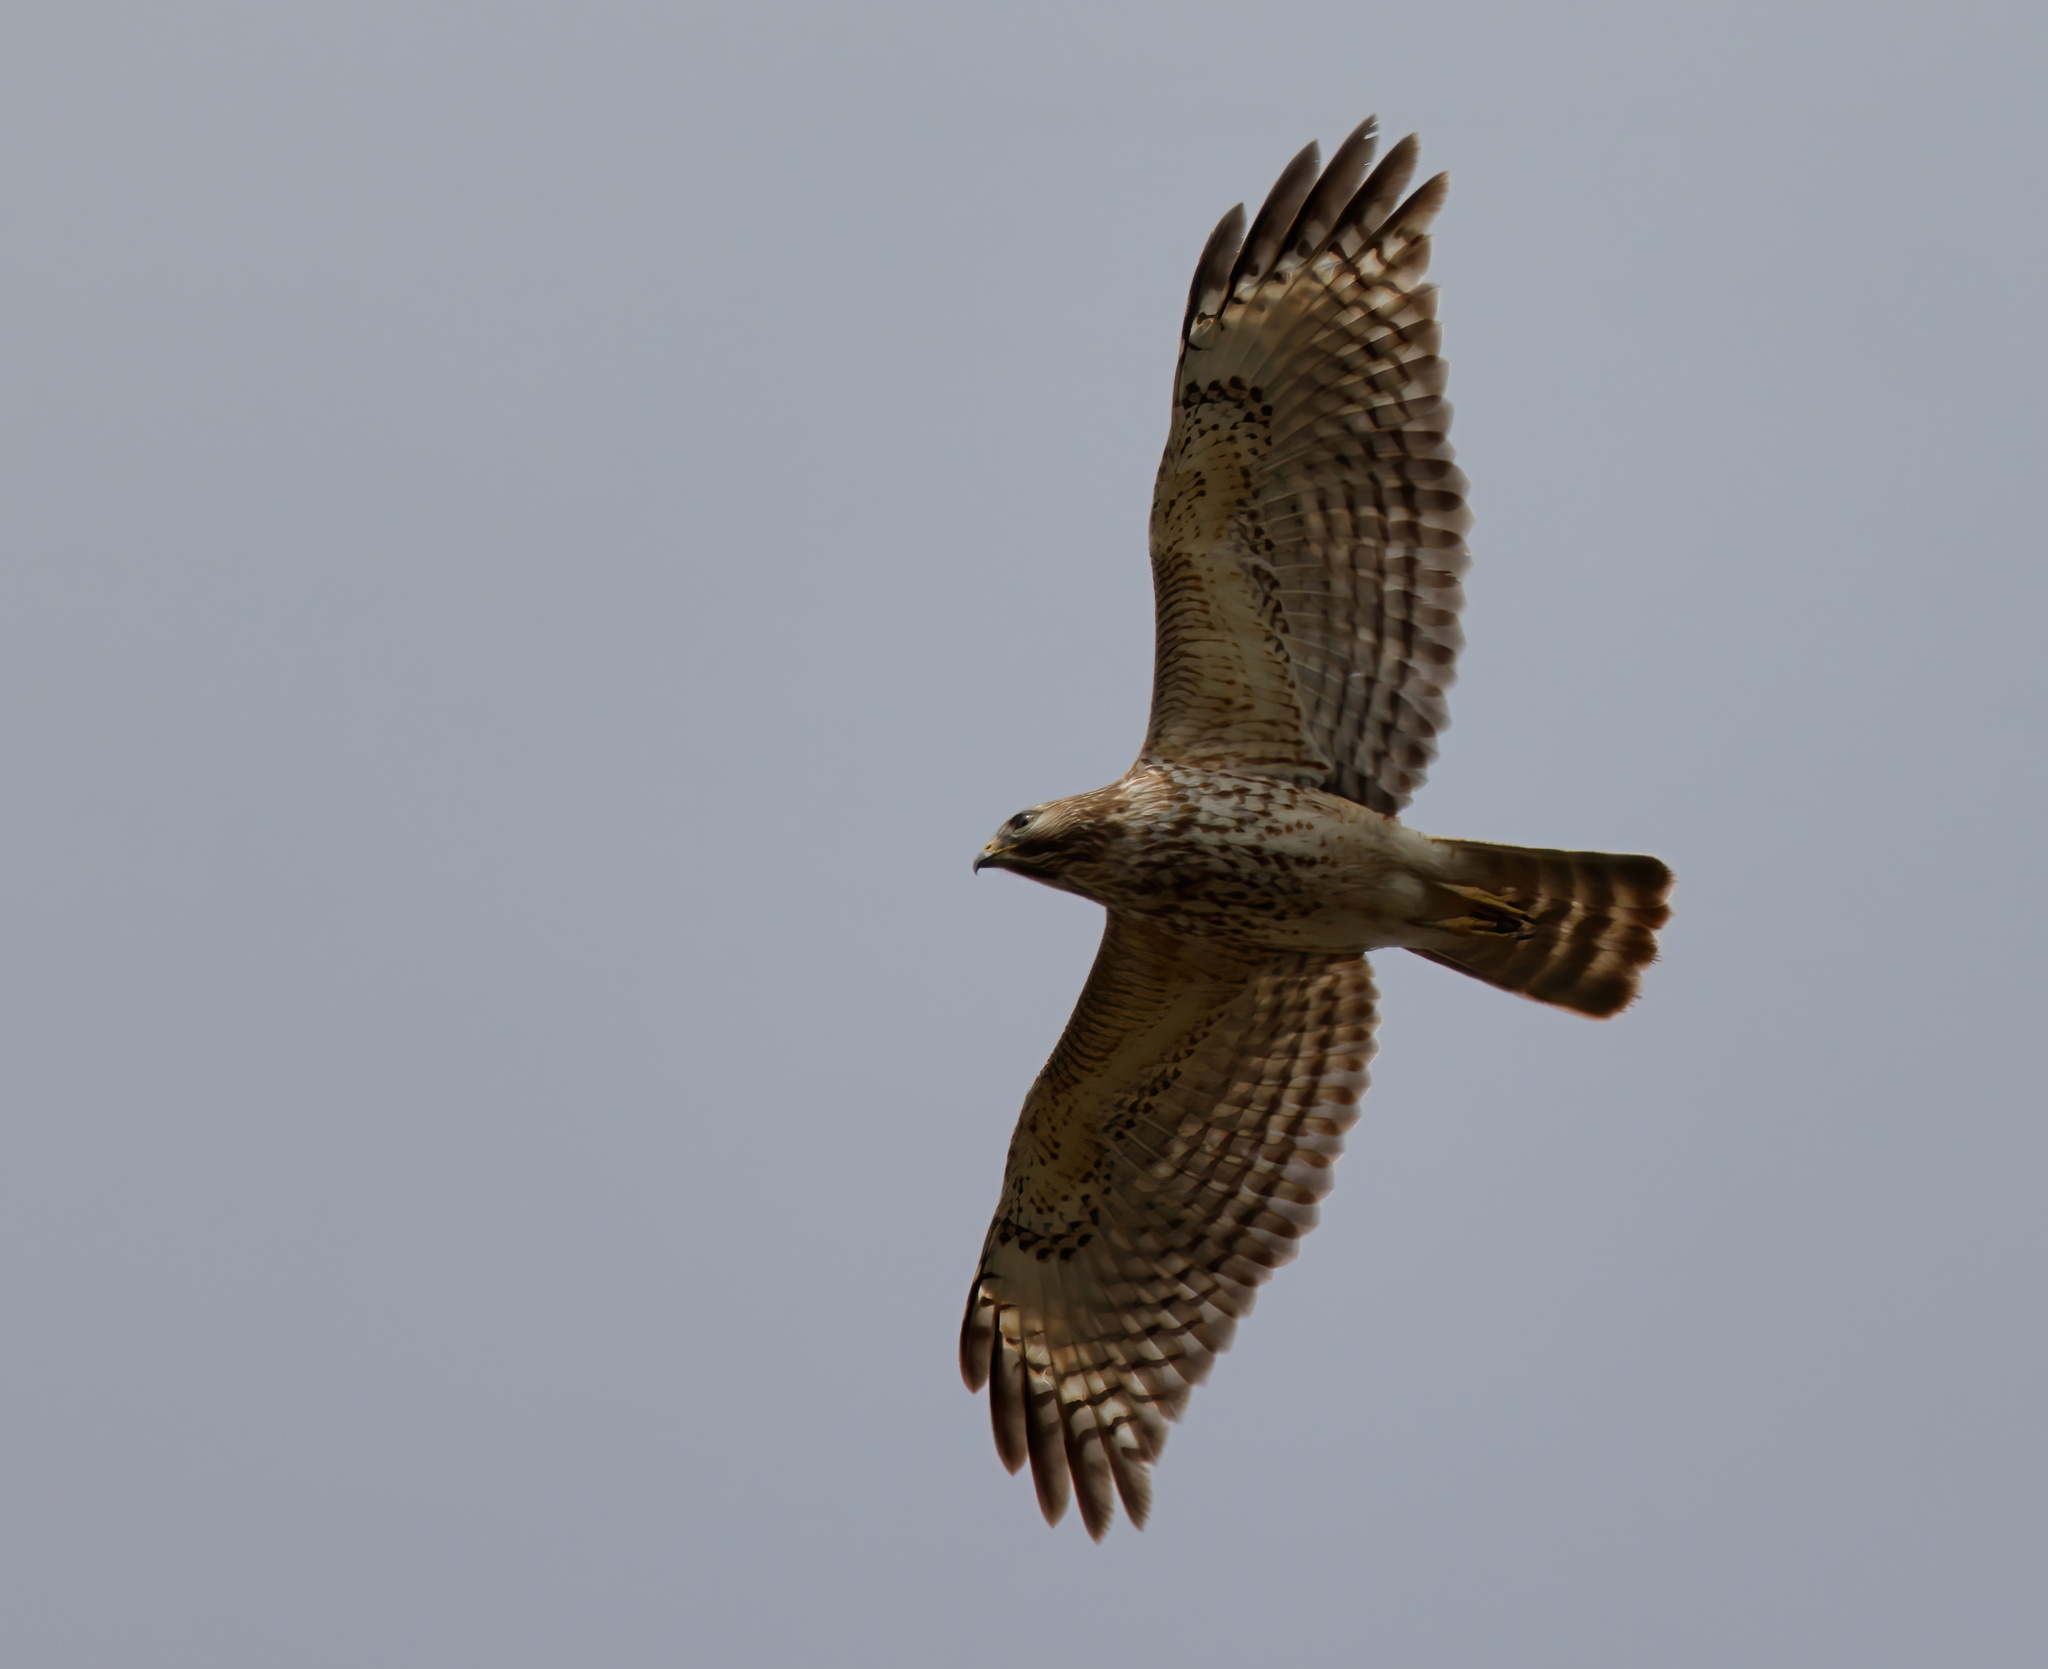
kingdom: Animalia
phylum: Chordata
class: Aves
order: Accipitriformes
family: Accipitridae
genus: Buteo
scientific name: Buteo lineatus
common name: Red-shouldered hawk
